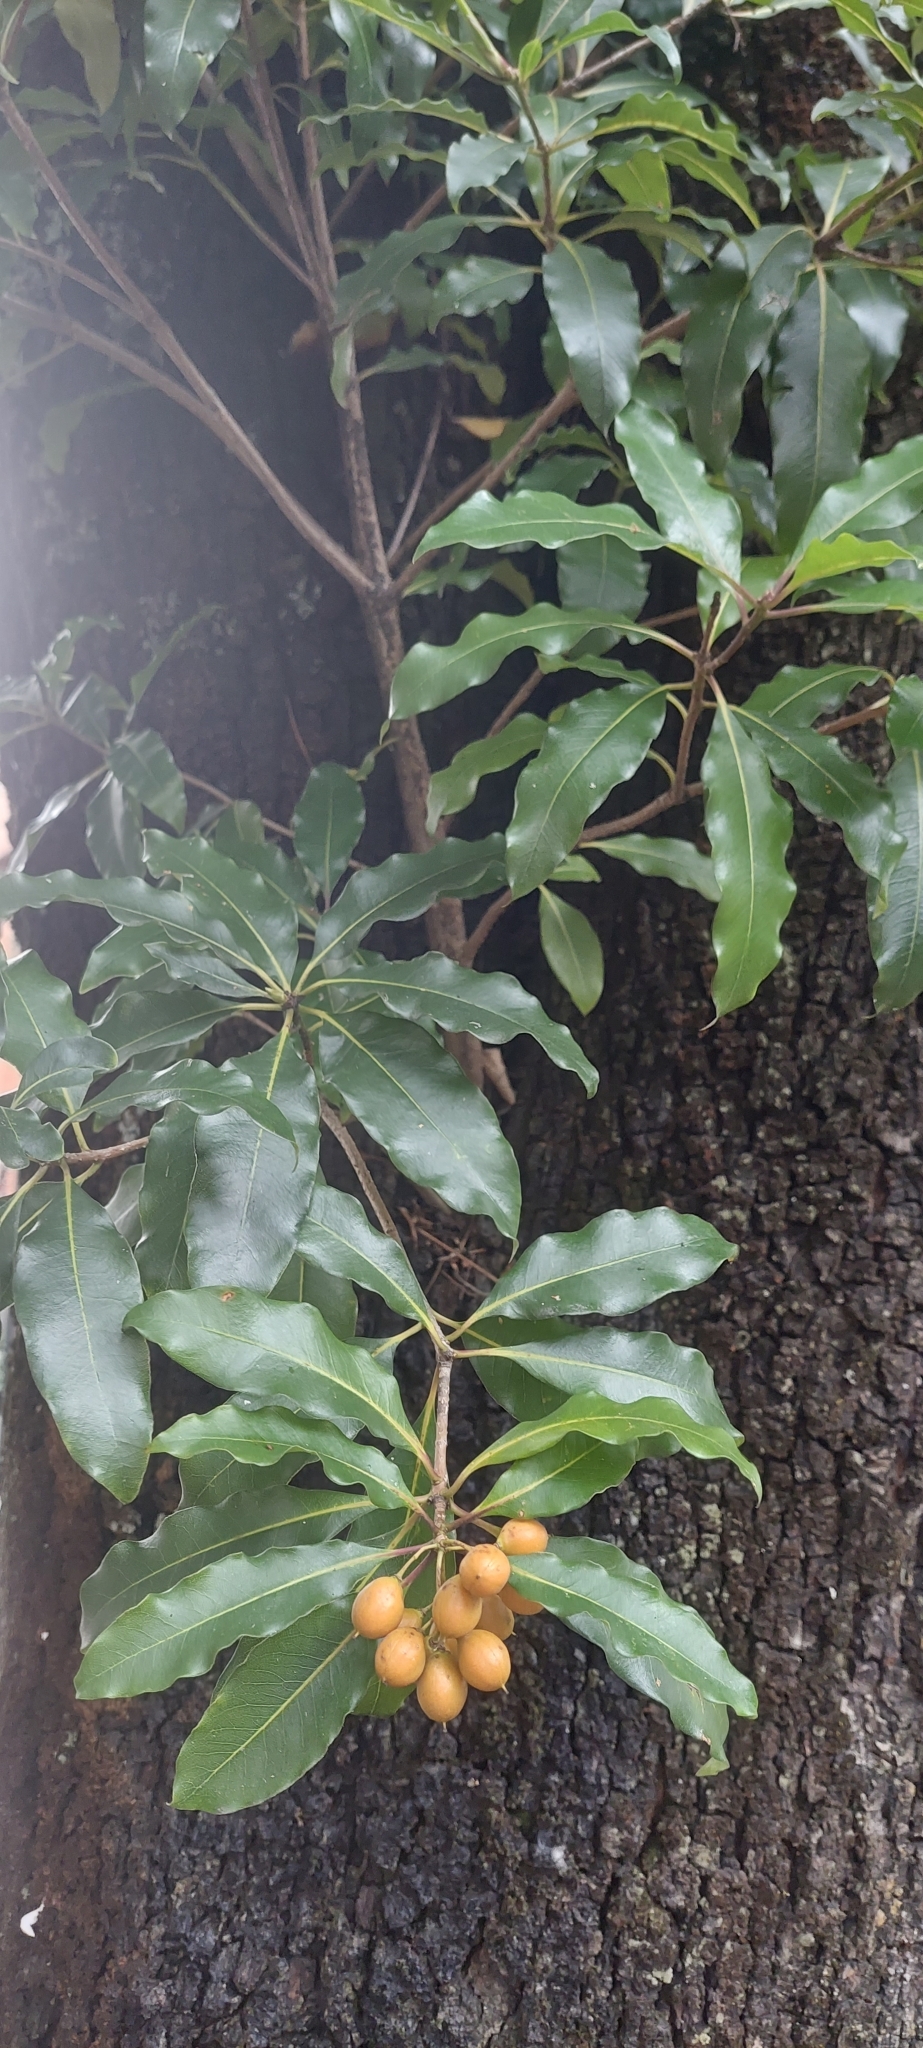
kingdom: Plantae
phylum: Tracheophyta
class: Magnoliopsida
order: Apiales
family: Pittosporaceae
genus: Pittosporum
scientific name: Pittosporum undulatum
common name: Australian cheesewood
